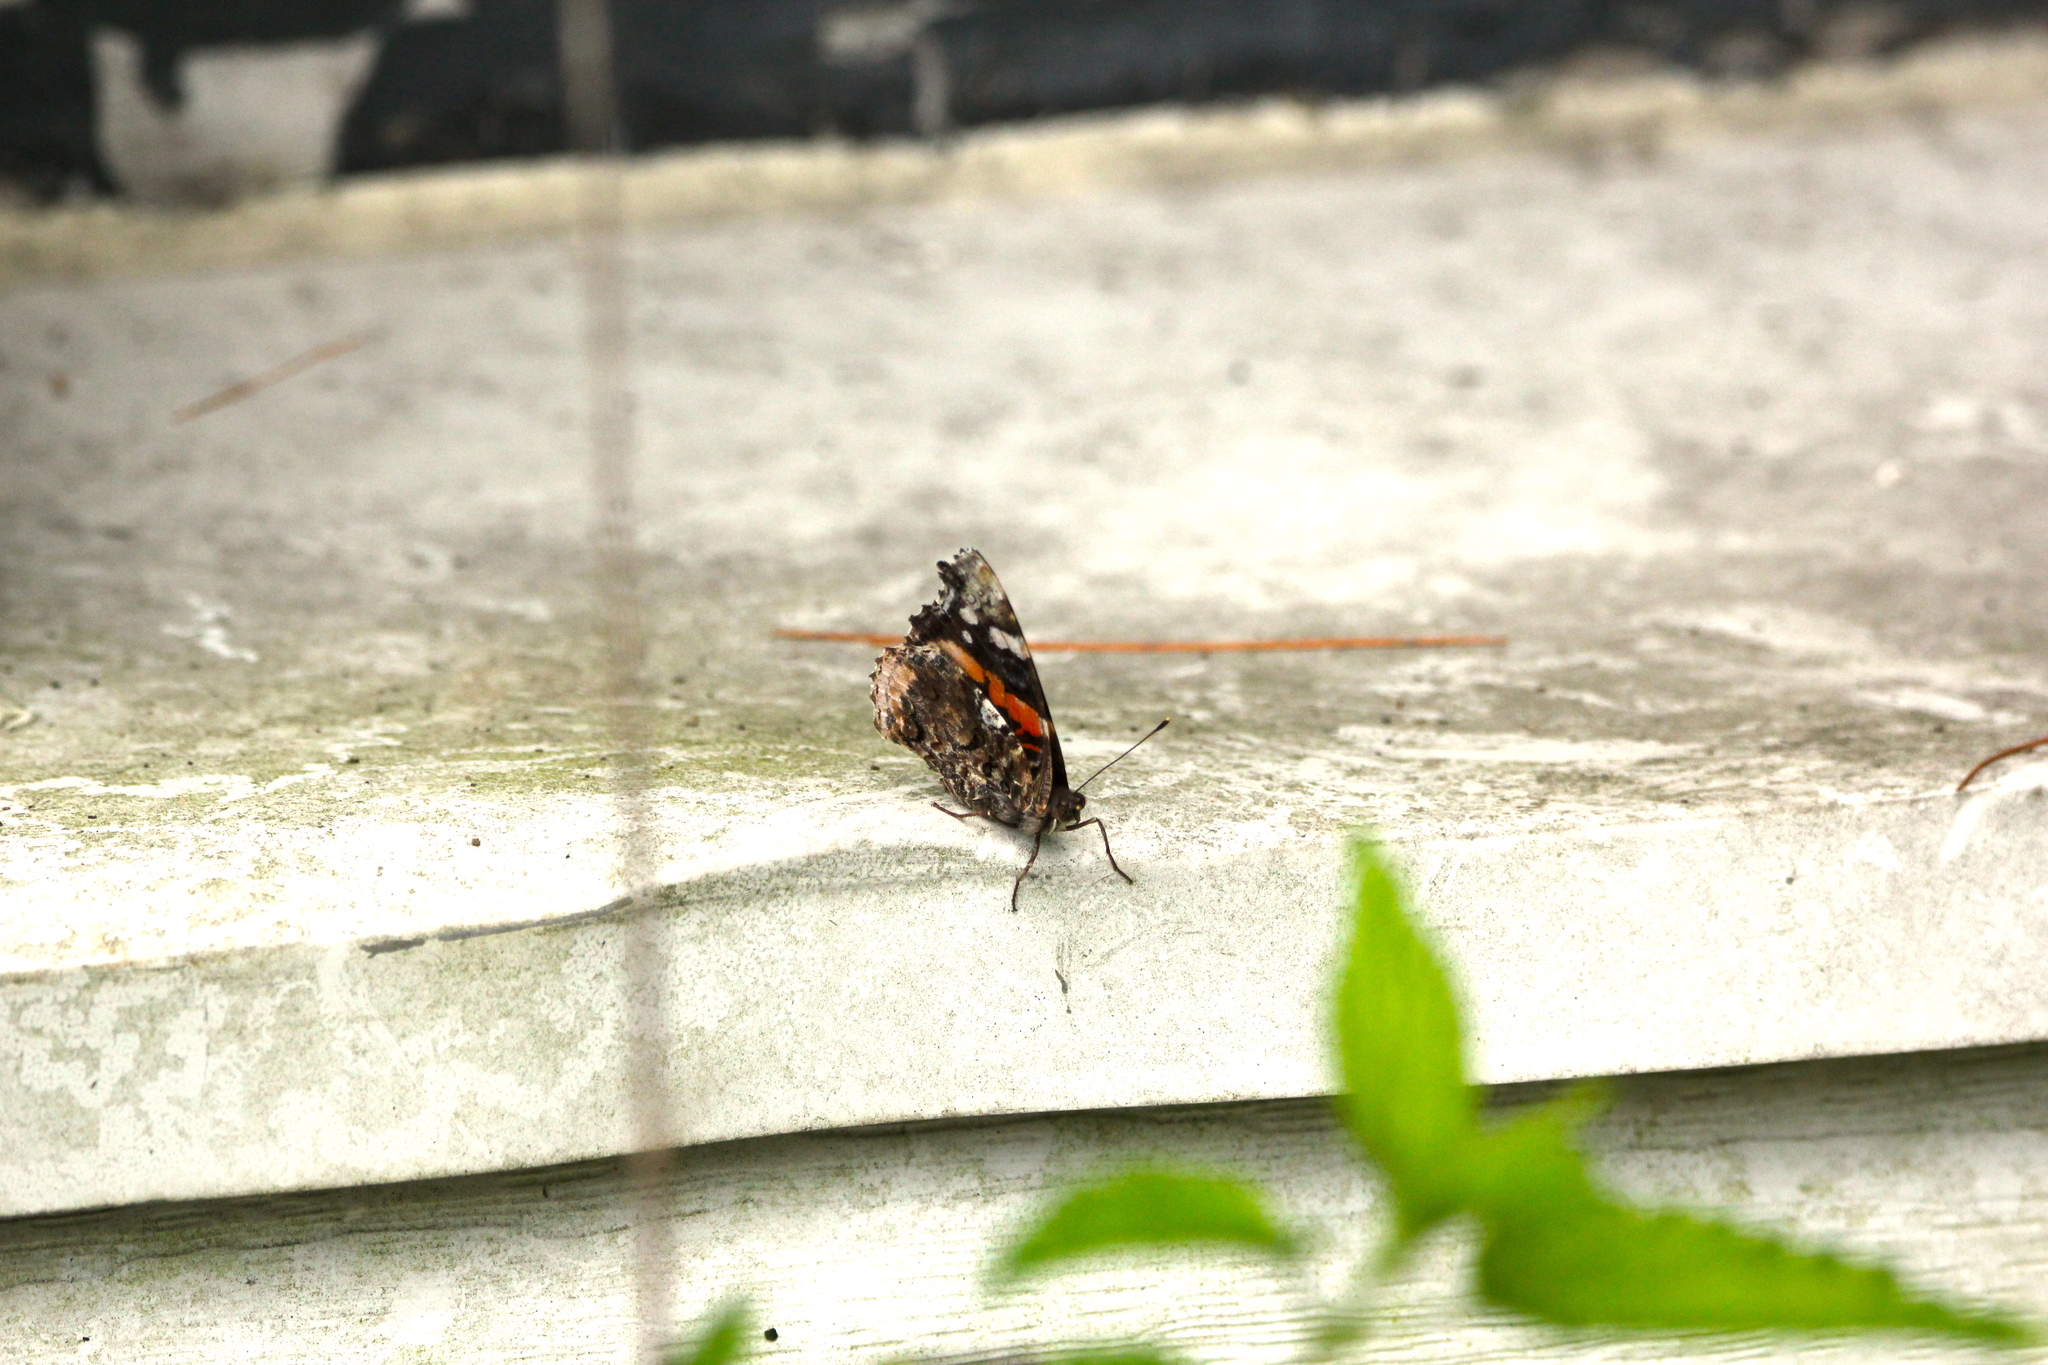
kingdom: Animalia
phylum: Arthropoda
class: Insecta
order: Lepidoptera
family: Nymphalidae
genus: Vanessa
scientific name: Vanessa atalanta
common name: Red admiral
